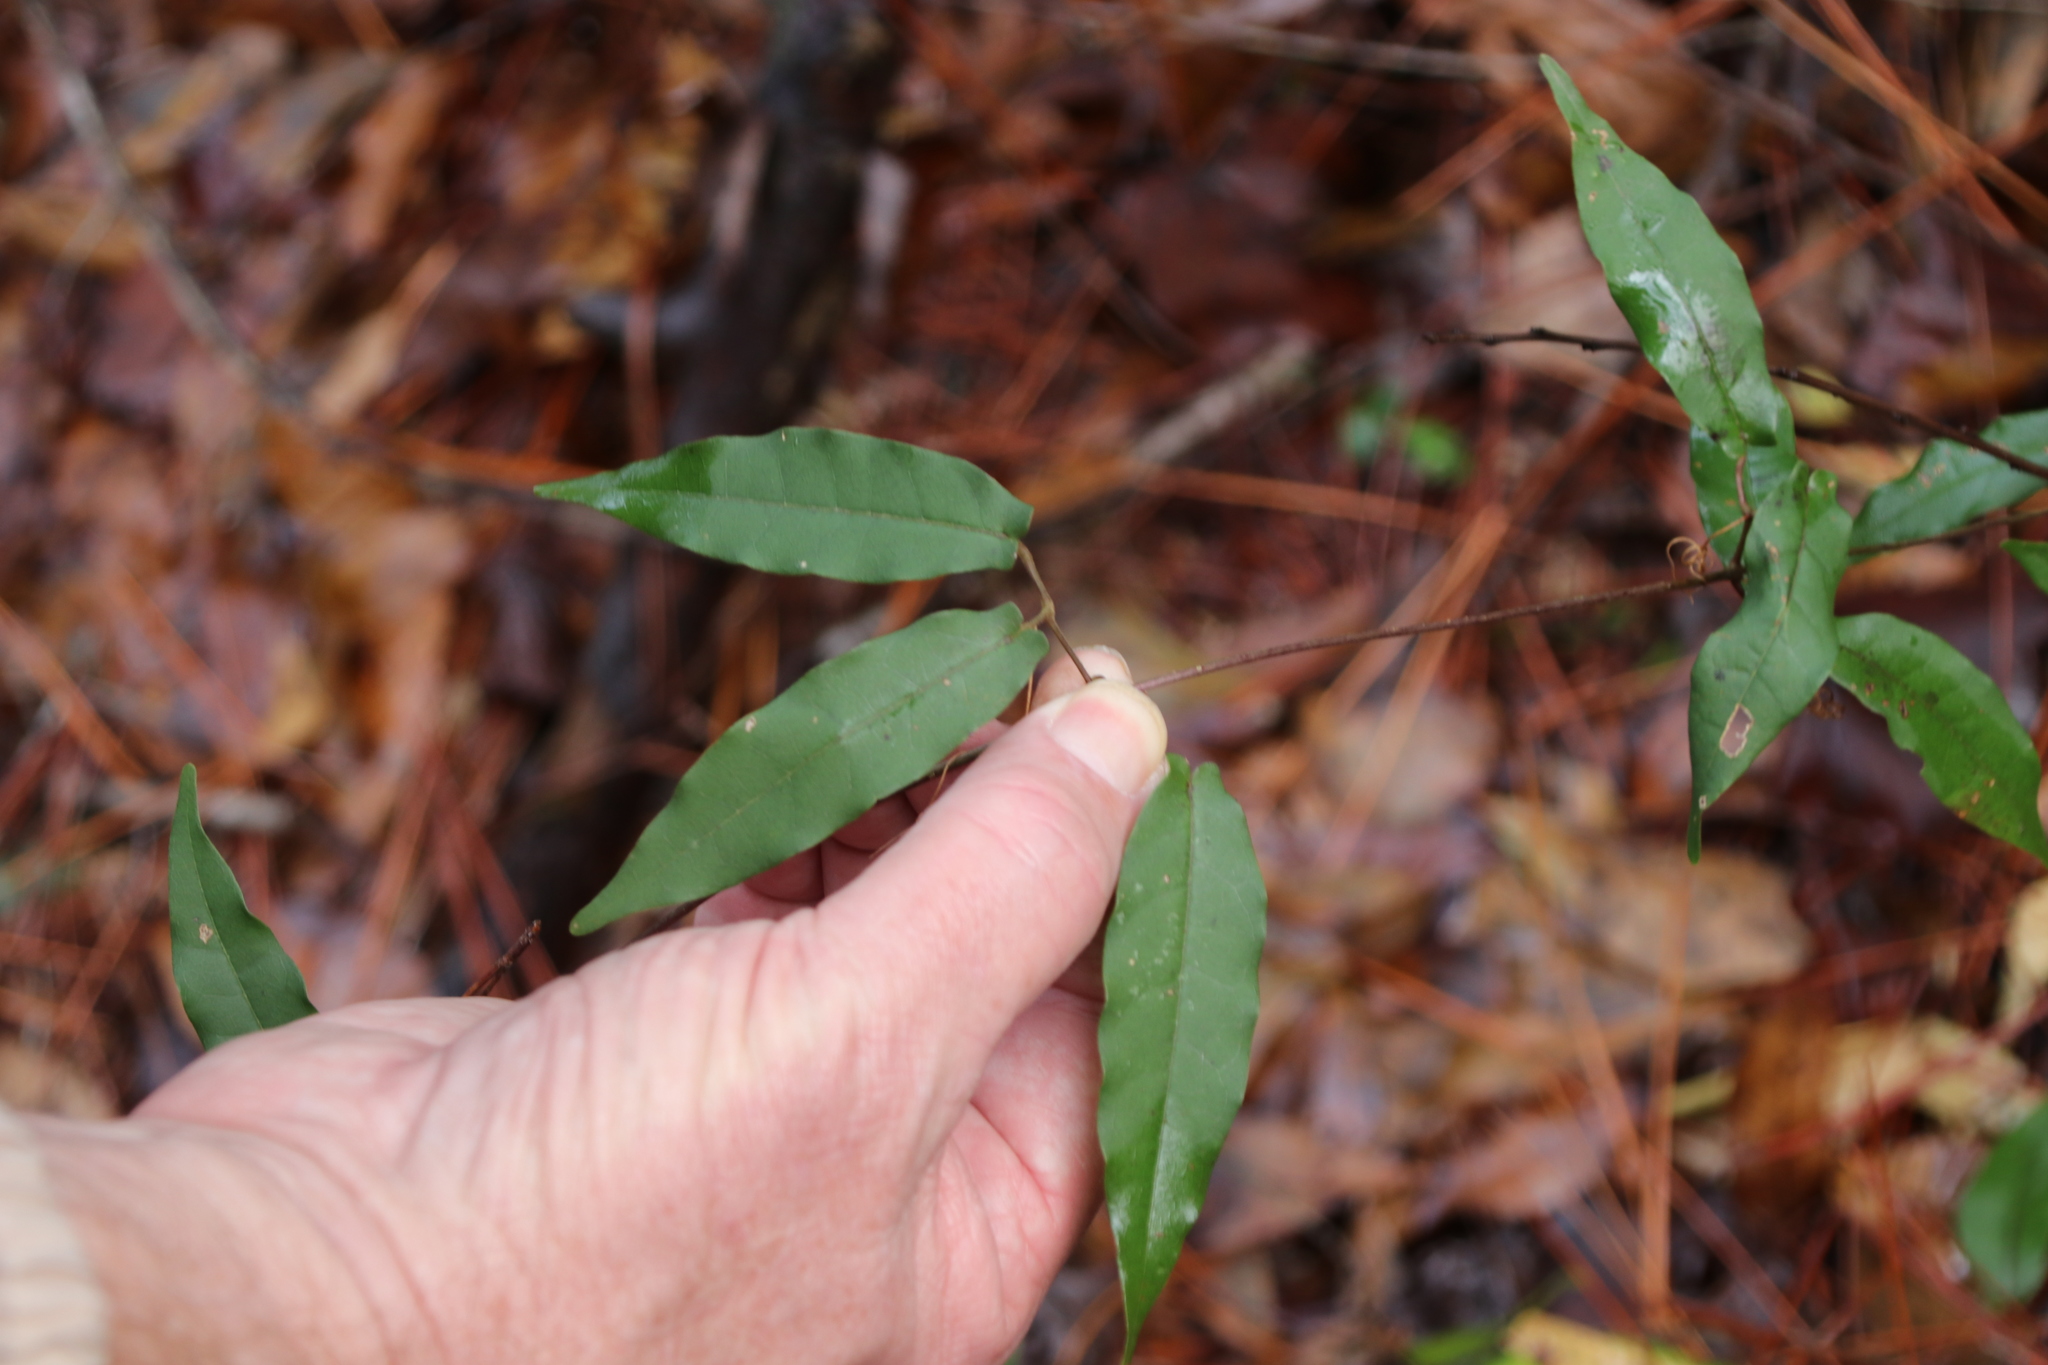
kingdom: Plantae
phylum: Tracheophyta
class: Magnoliopsida
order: Lamiales
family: Bignoniaceae
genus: Bignonia
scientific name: Bignonia capreolata
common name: Crossvine
